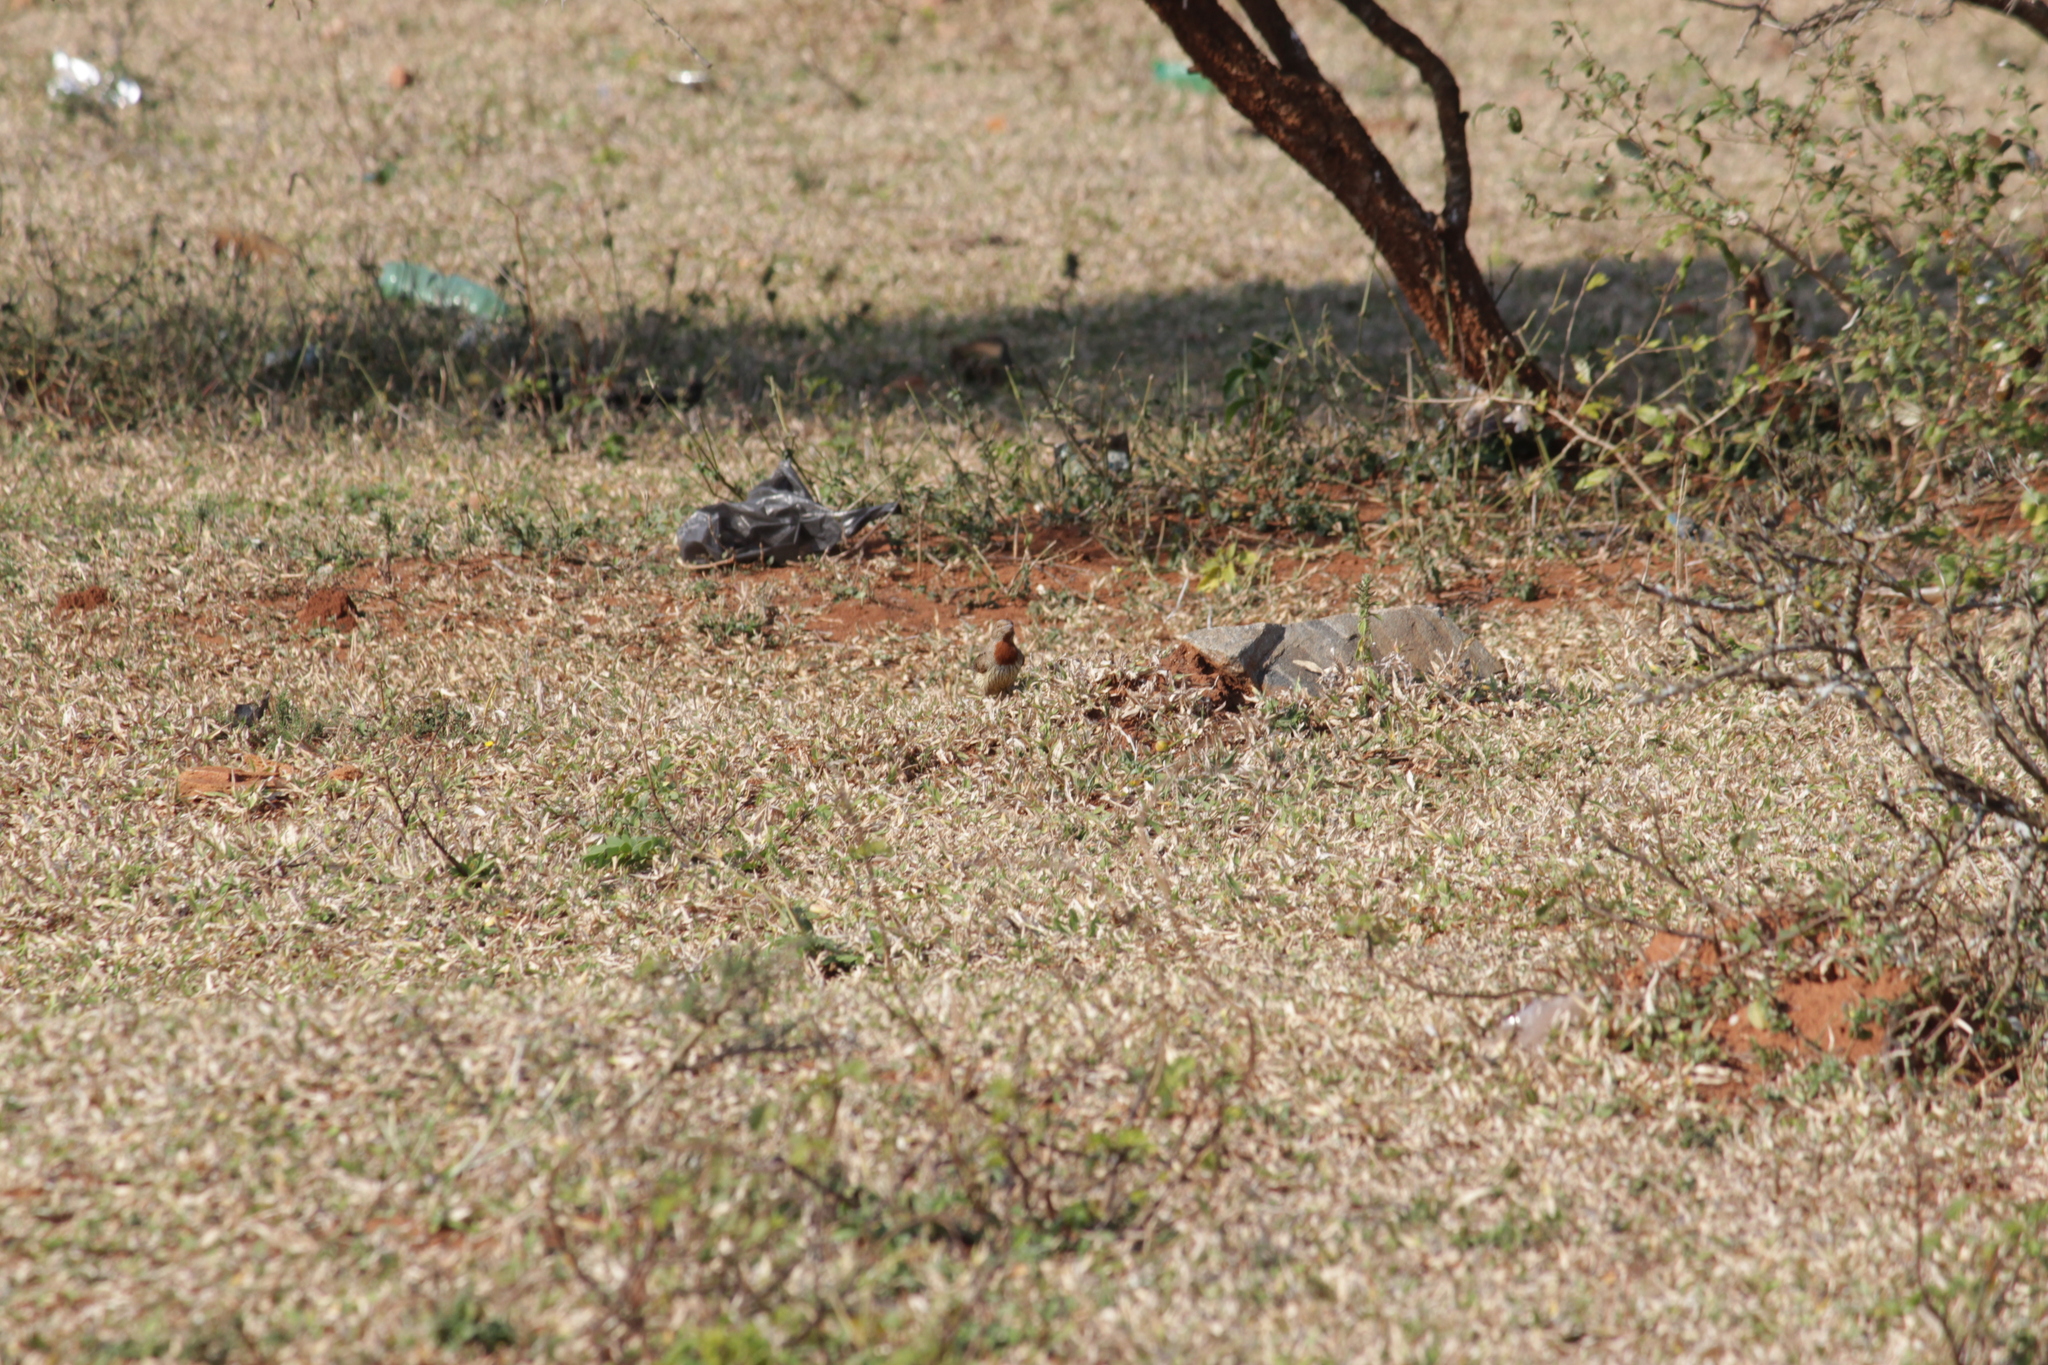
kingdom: Animalia
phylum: Chordata
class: Aves
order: Piciformes
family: Picidae
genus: Jynx
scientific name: Jynx ruficollis
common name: Red-throated wryneck
